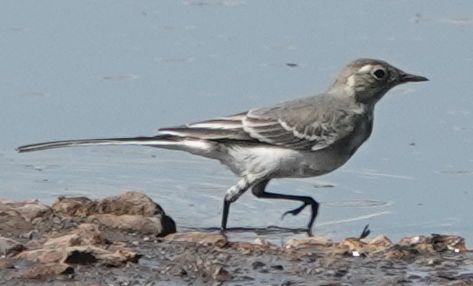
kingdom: Animalia
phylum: Chordata
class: Aves
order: Passeriformes
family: Motacillidae
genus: Motacilla
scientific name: Motacilla alba
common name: White wagtail
